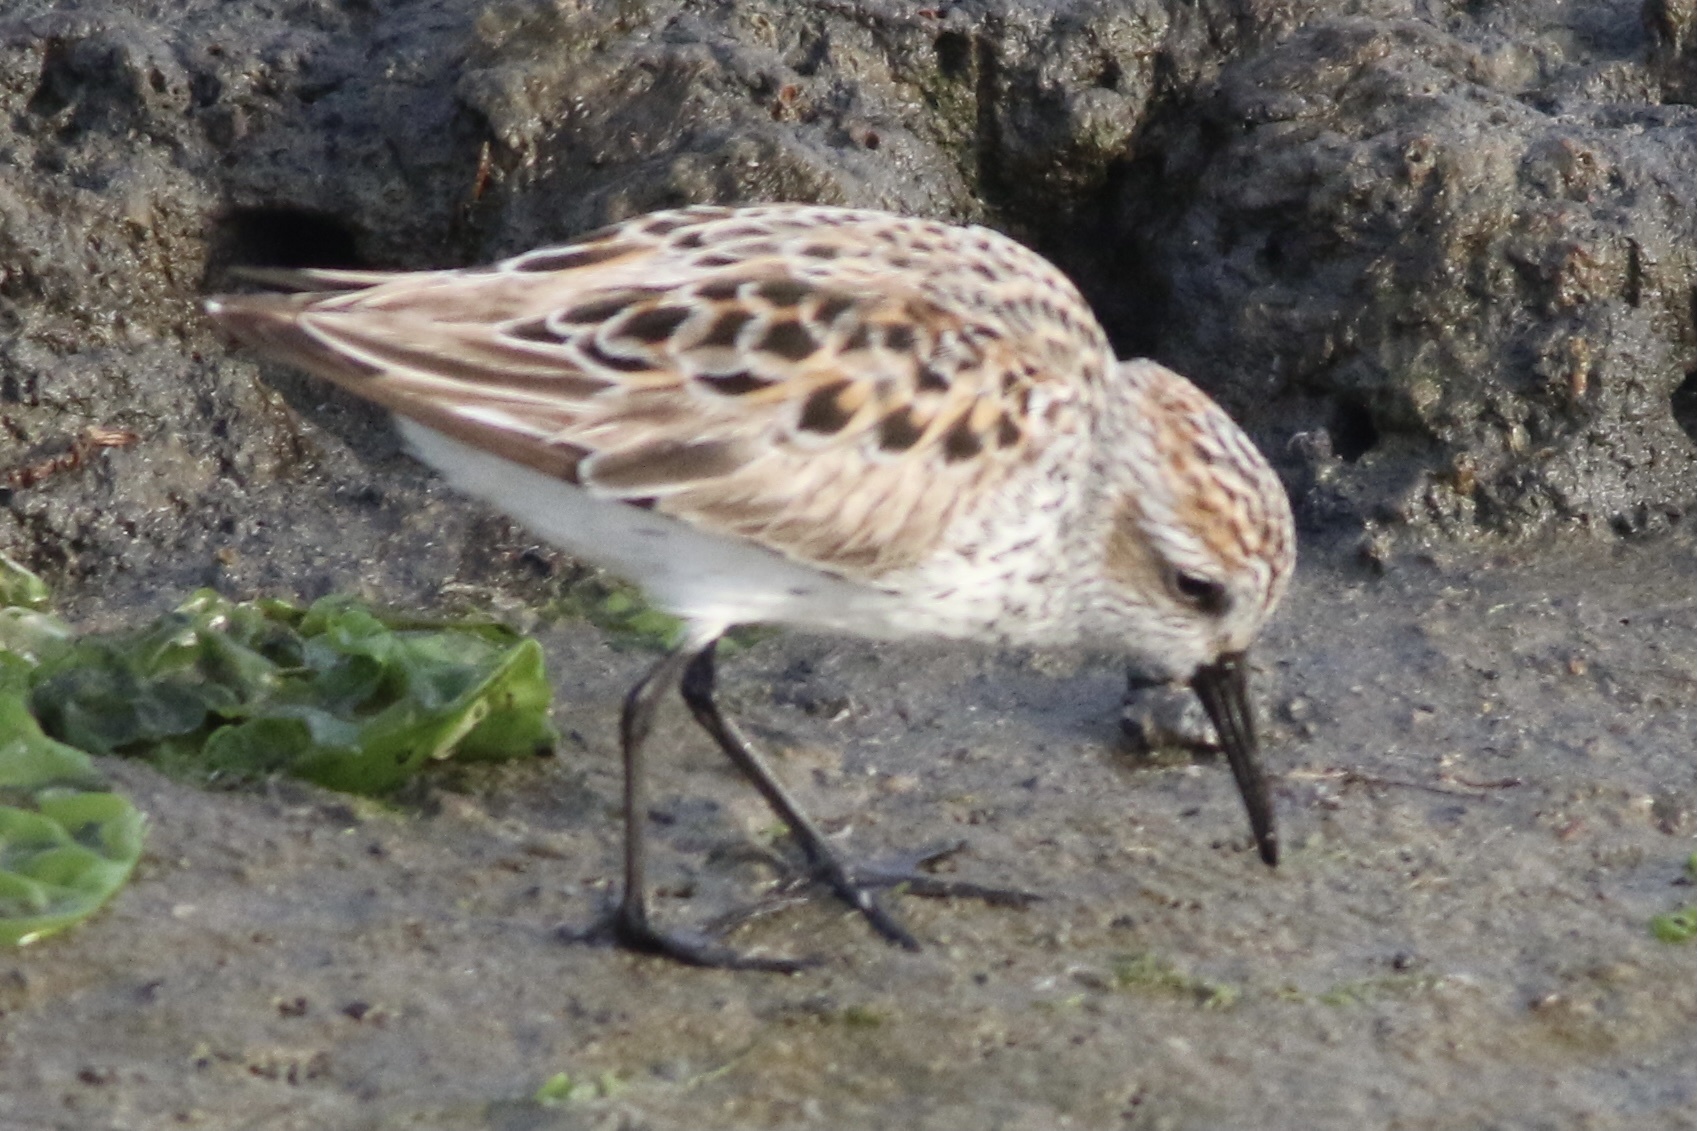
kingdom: Animalia
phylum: Chordata
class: Aves
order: Charadriiformes
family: Scolopacidae
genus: Calidris
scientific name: Calidris mauri
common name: Western sandpiper
